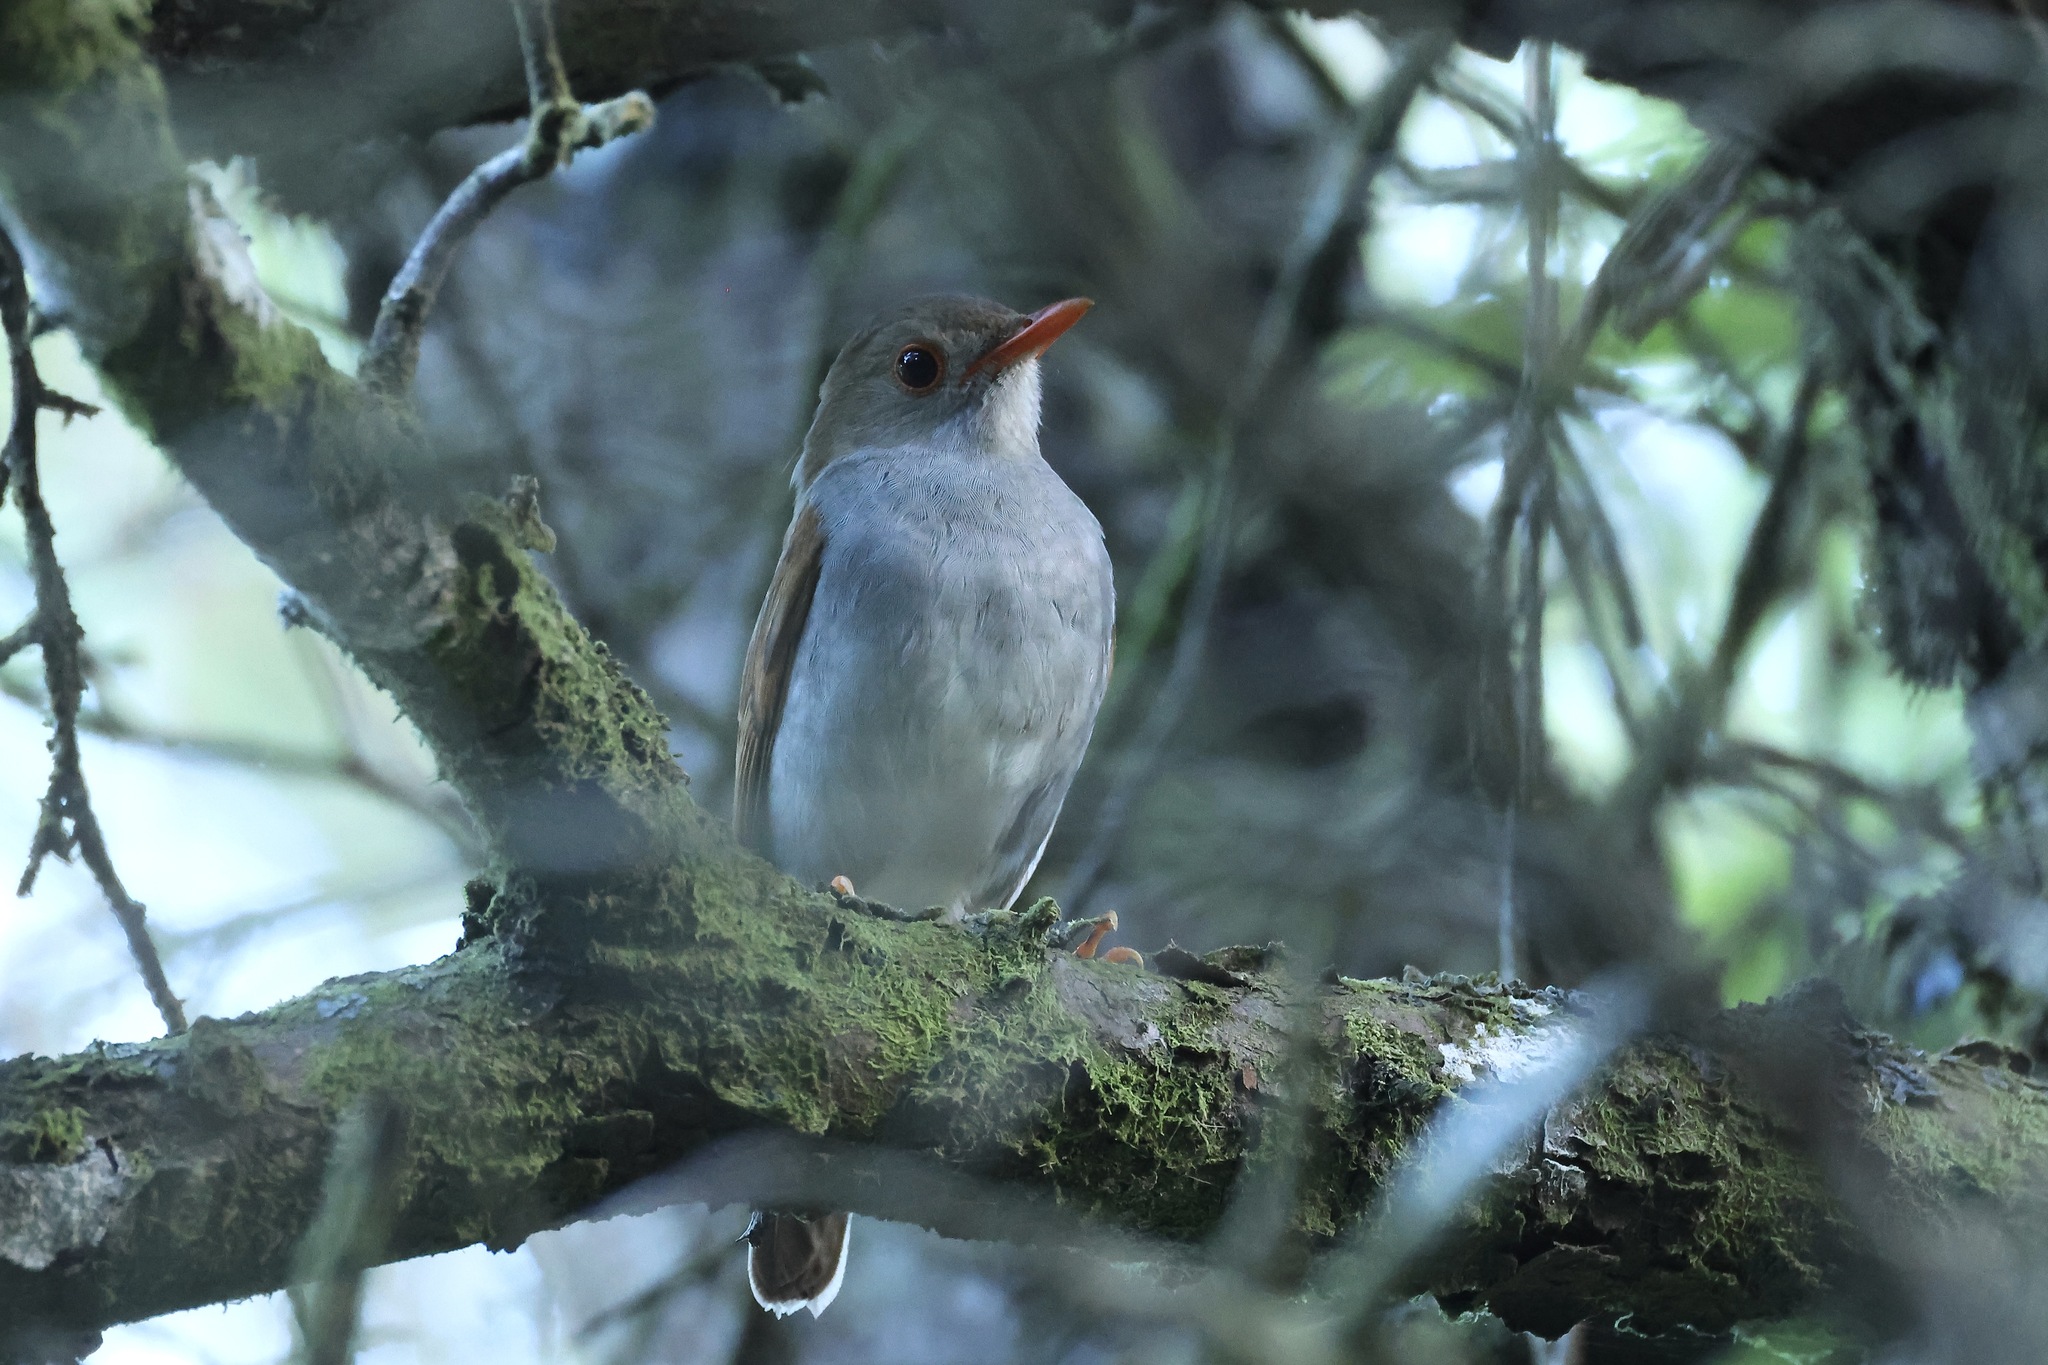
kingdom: Animalia
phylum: Chordata
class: Aves
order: Passeriformes
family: Turdidae
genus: Catharus
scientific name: Catharus aurantiirostris
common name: Orange-billed nightingale-thrush
